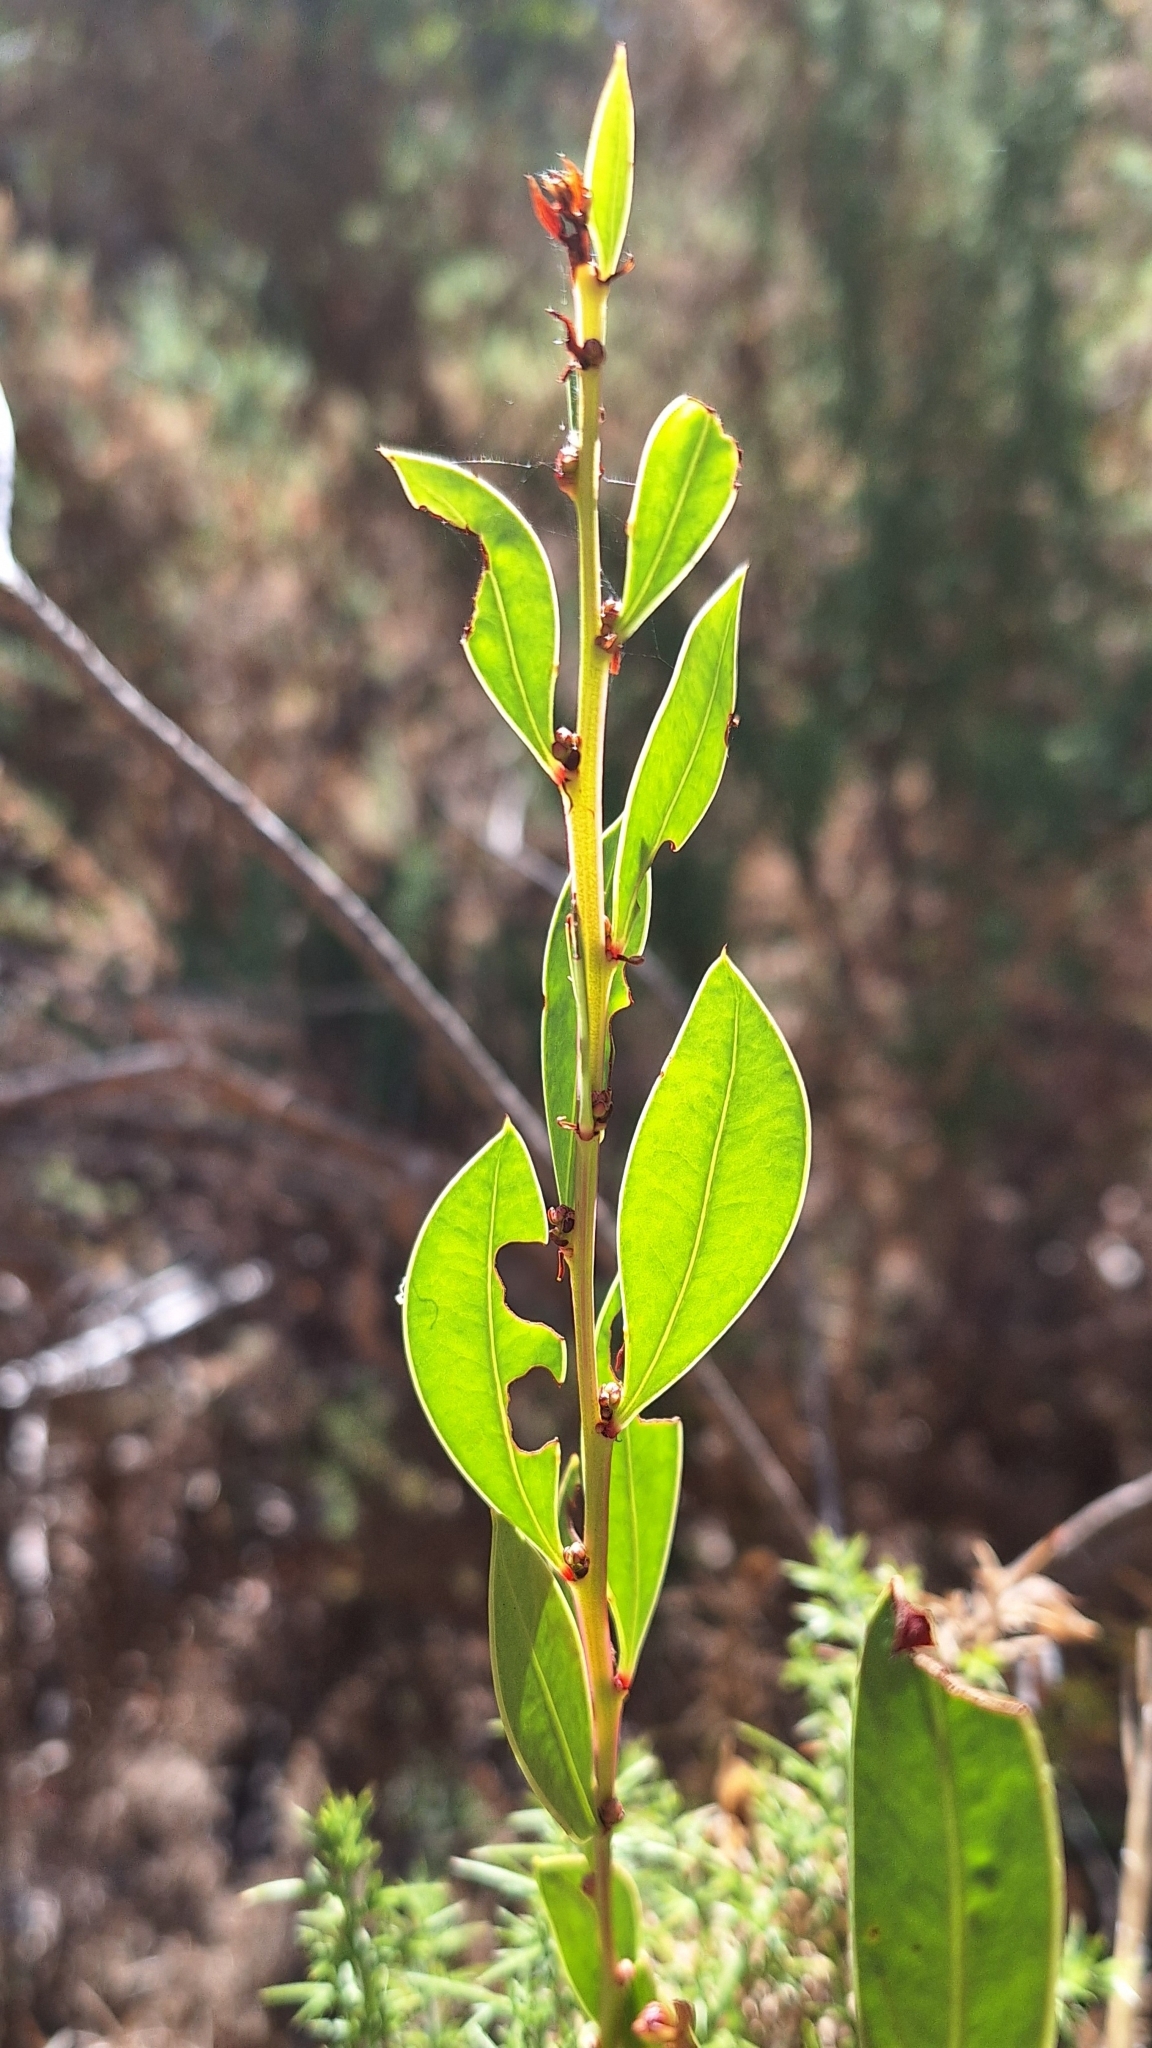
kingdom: Plantae
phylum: Tracheophyta
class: Magnoliopsida
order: Fabales
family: Fabaceae
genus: Acacia
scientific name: Acacia myrtifolia
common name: Myrtle wattle
